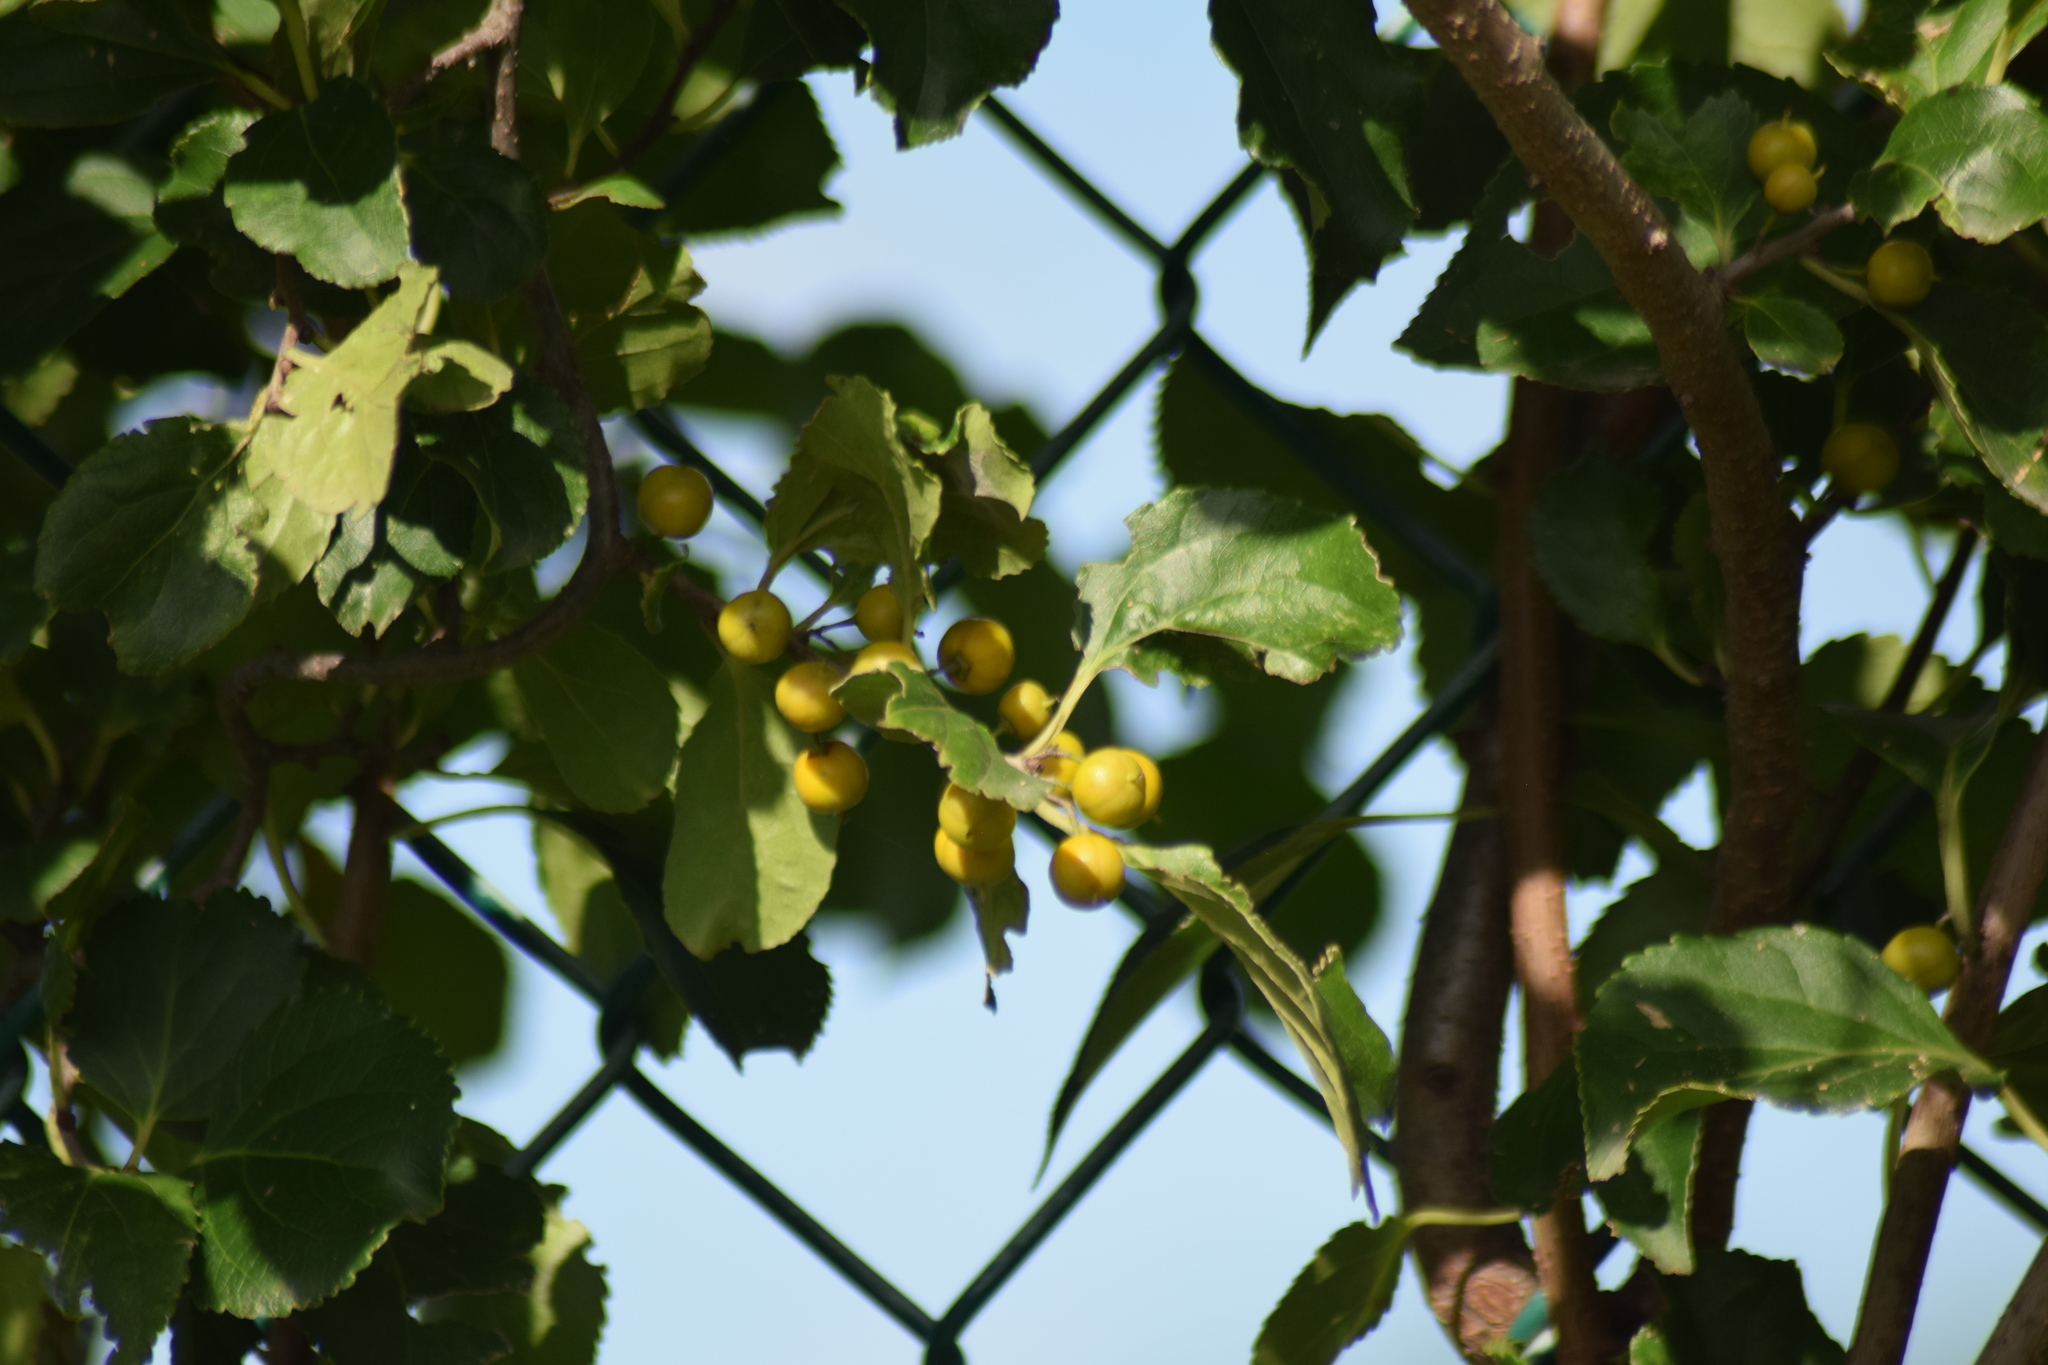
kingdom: Plantae
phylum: Tracheophyta
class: Magnoliopsida
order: Celastrales
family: Celastraceae
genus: Celastrus
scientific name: Celastrus orbiculatus
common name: Oriental bittersweet
